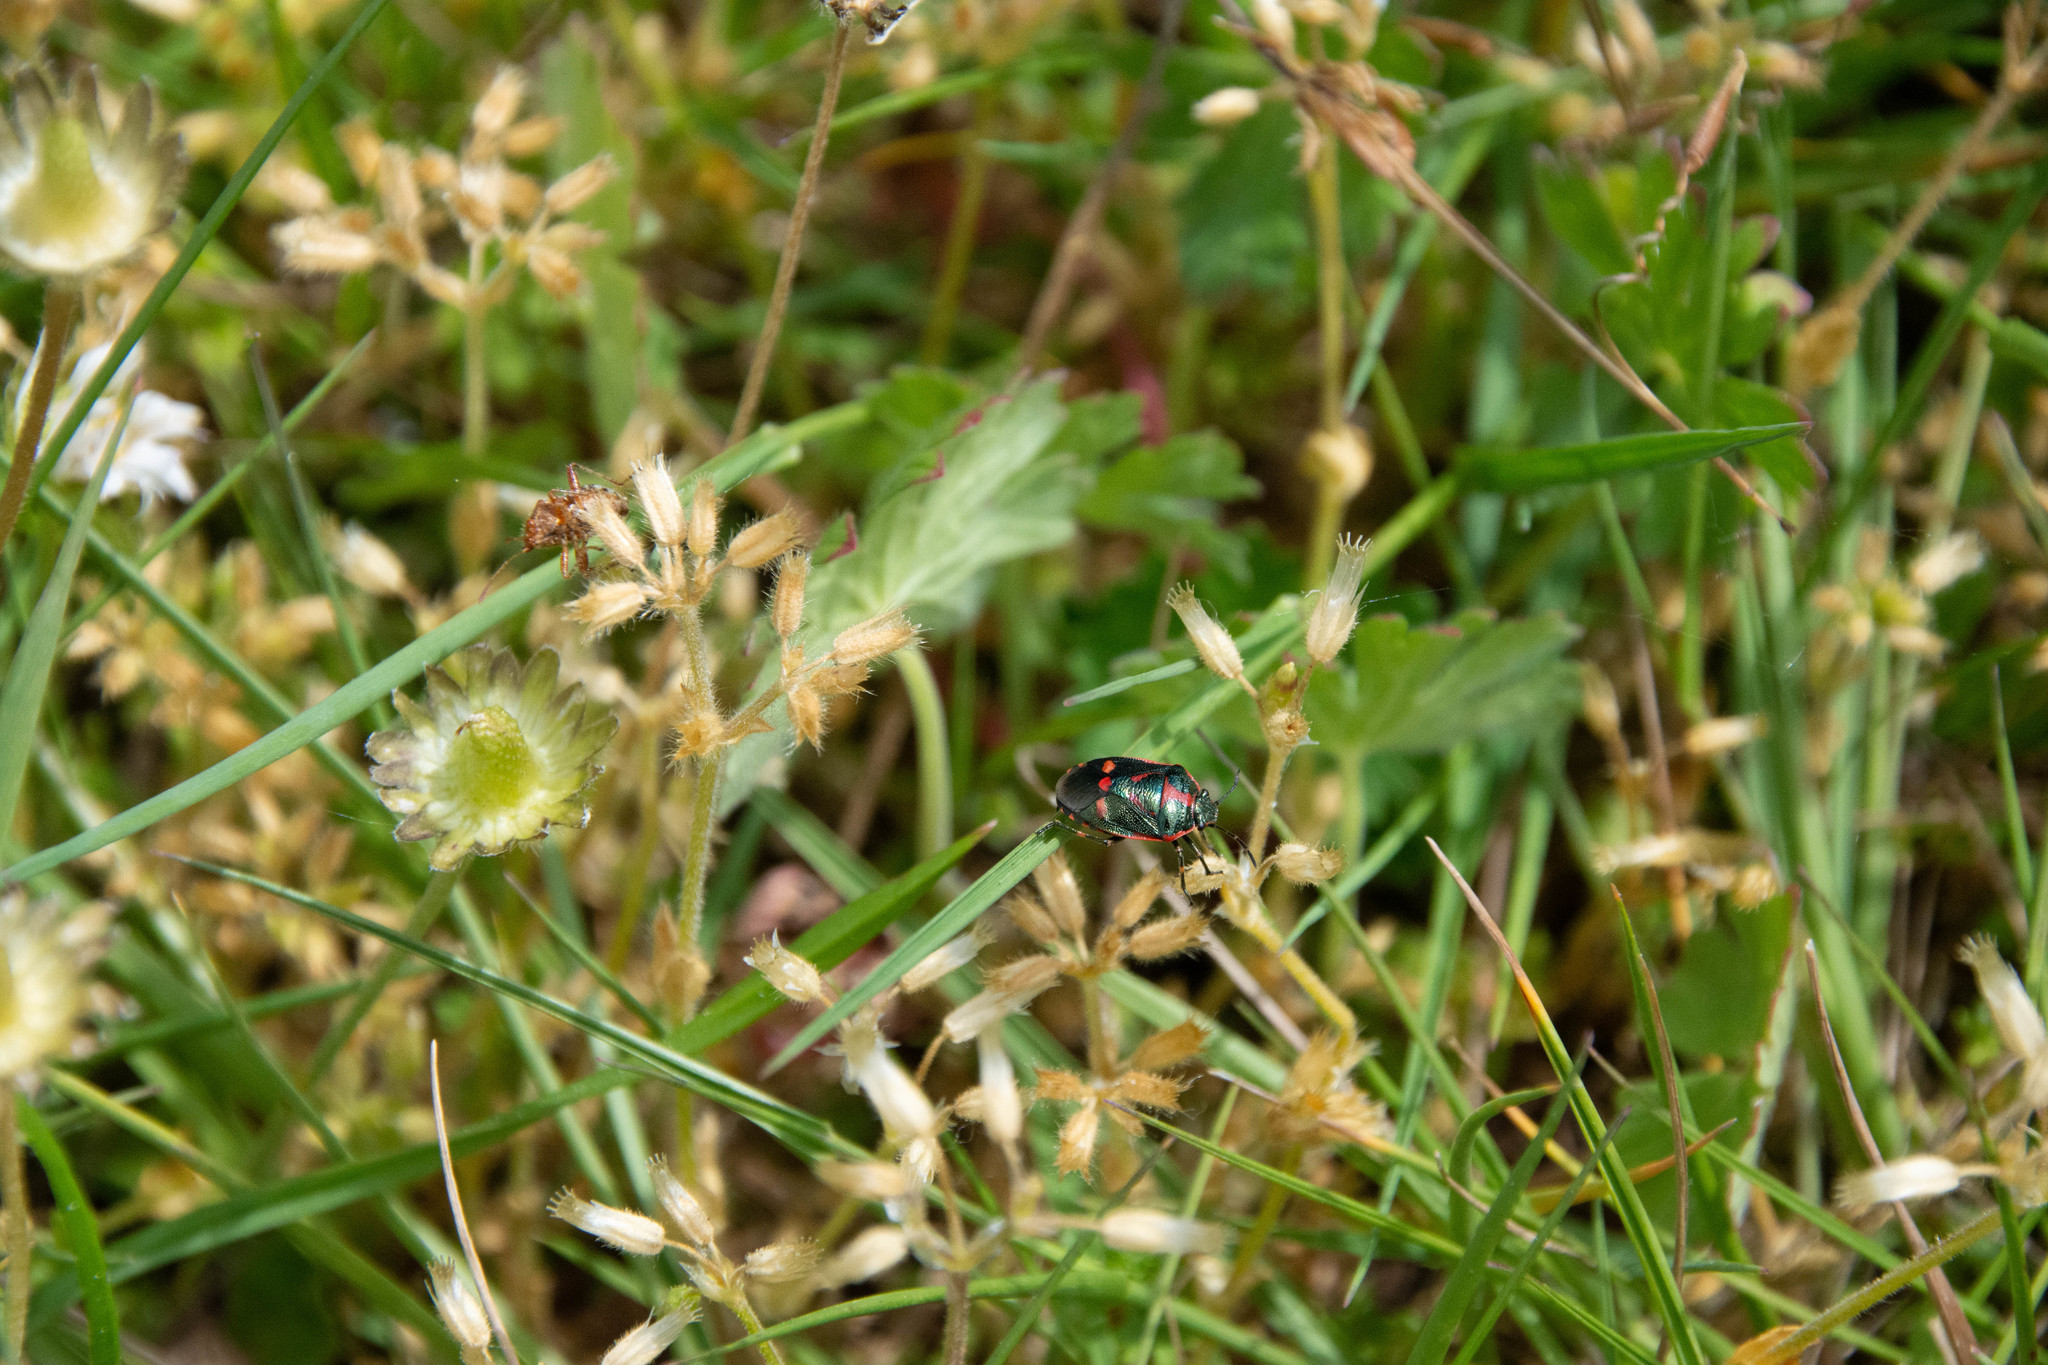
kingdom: Animalia
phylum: Arthropoda
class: Insecta
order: Hemiptera
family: Pentatomidae
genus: Eurydema
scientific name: Eurydema oleracea
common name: Cabbage bug
